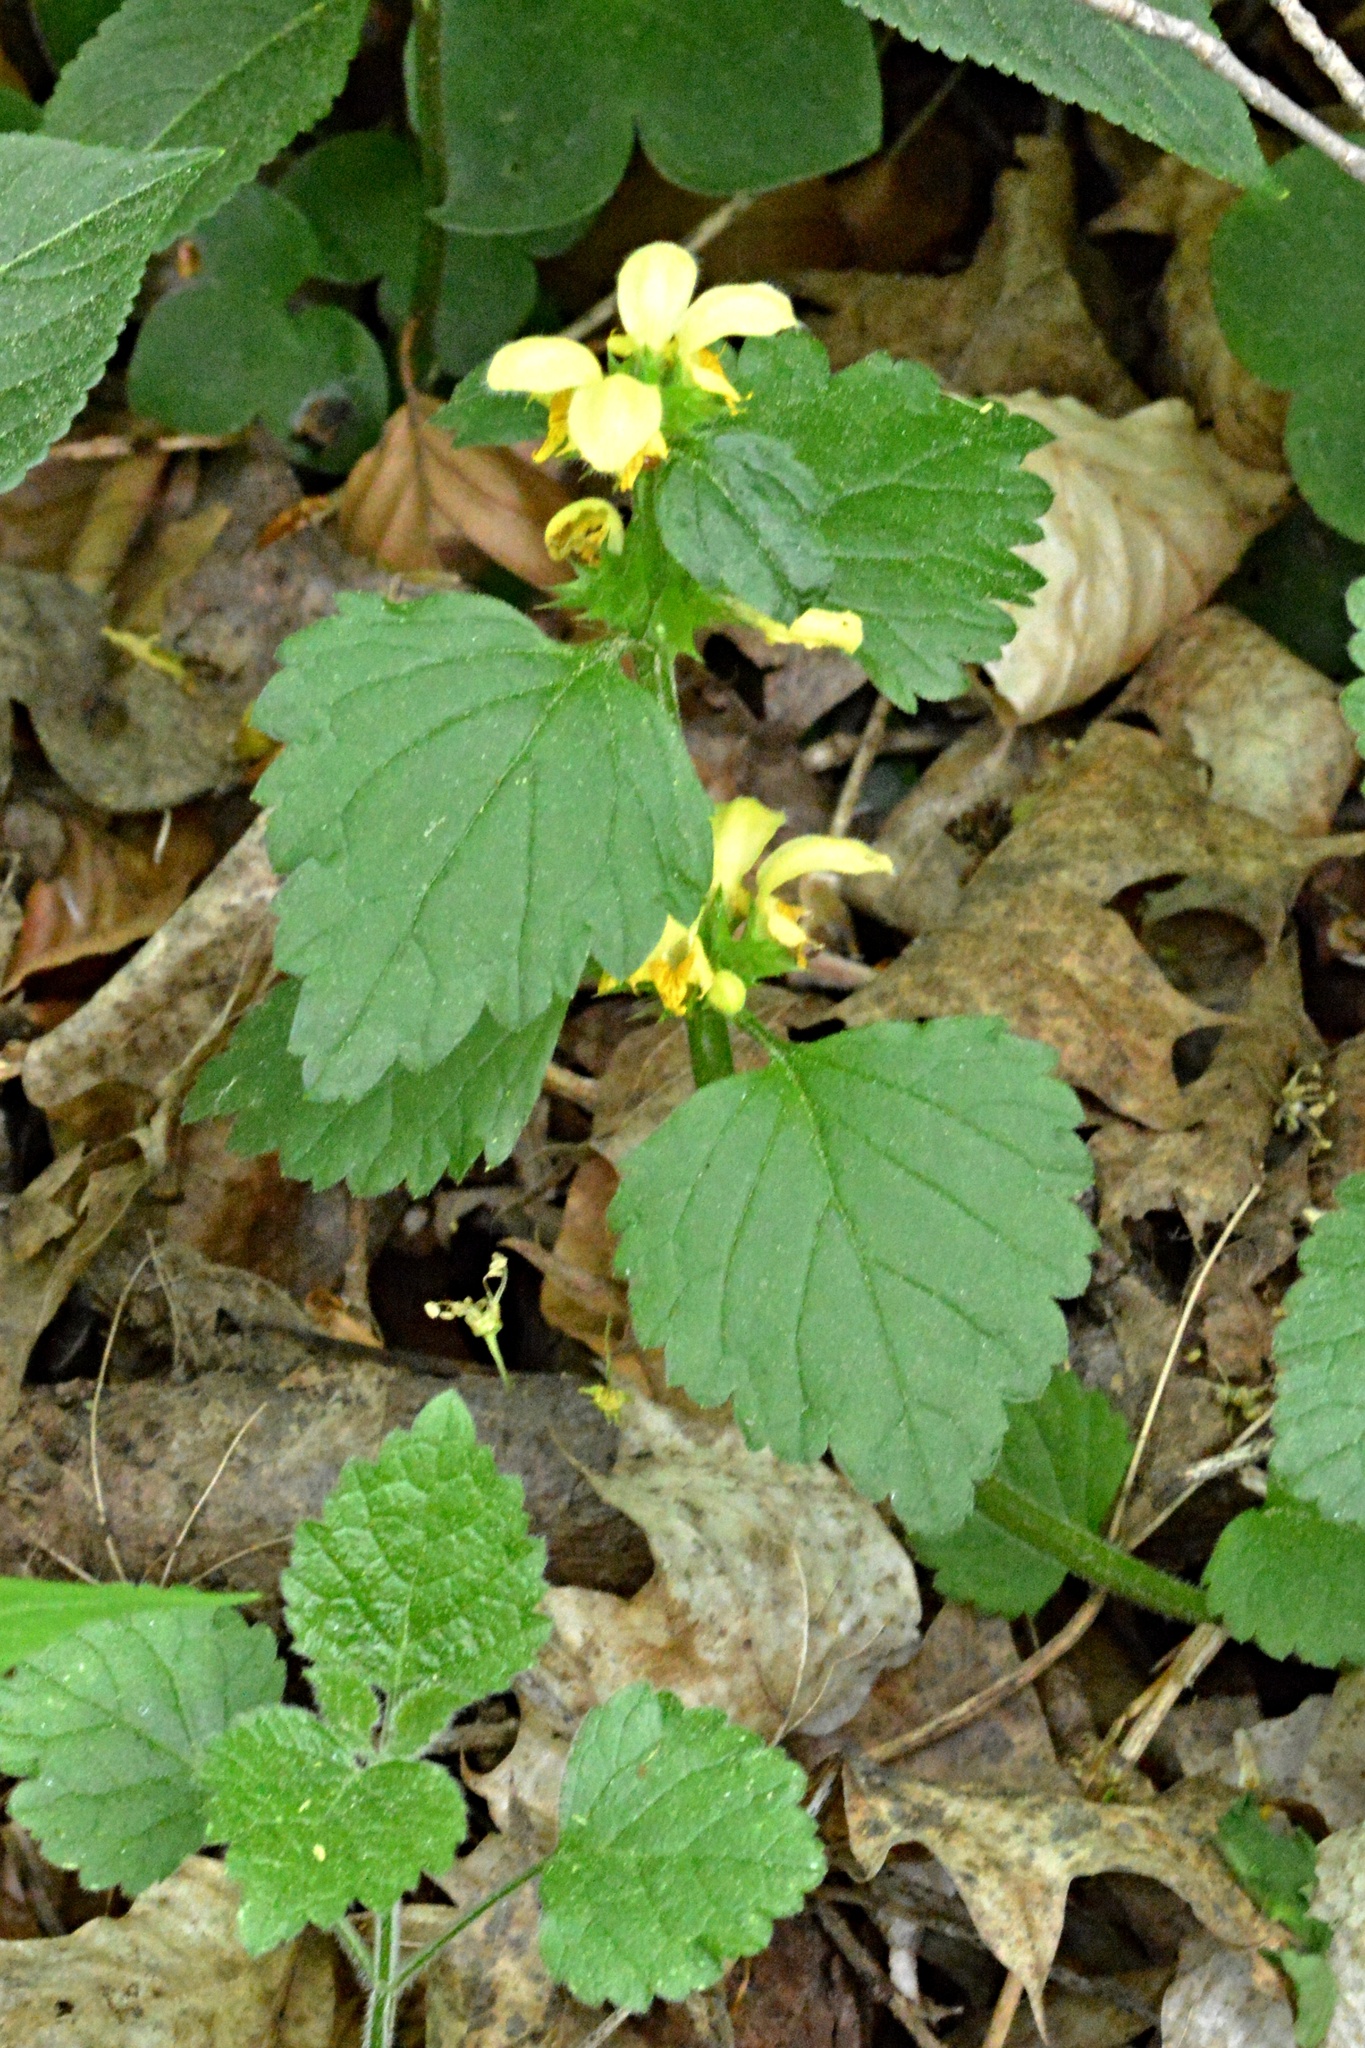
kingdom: Plantae
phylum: Tracheophyta
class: Magnoliopsida
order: Lamiales
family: Lamiaceae
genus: Lamium
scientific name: Lamium galeobdolon
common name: Yellow archangel
